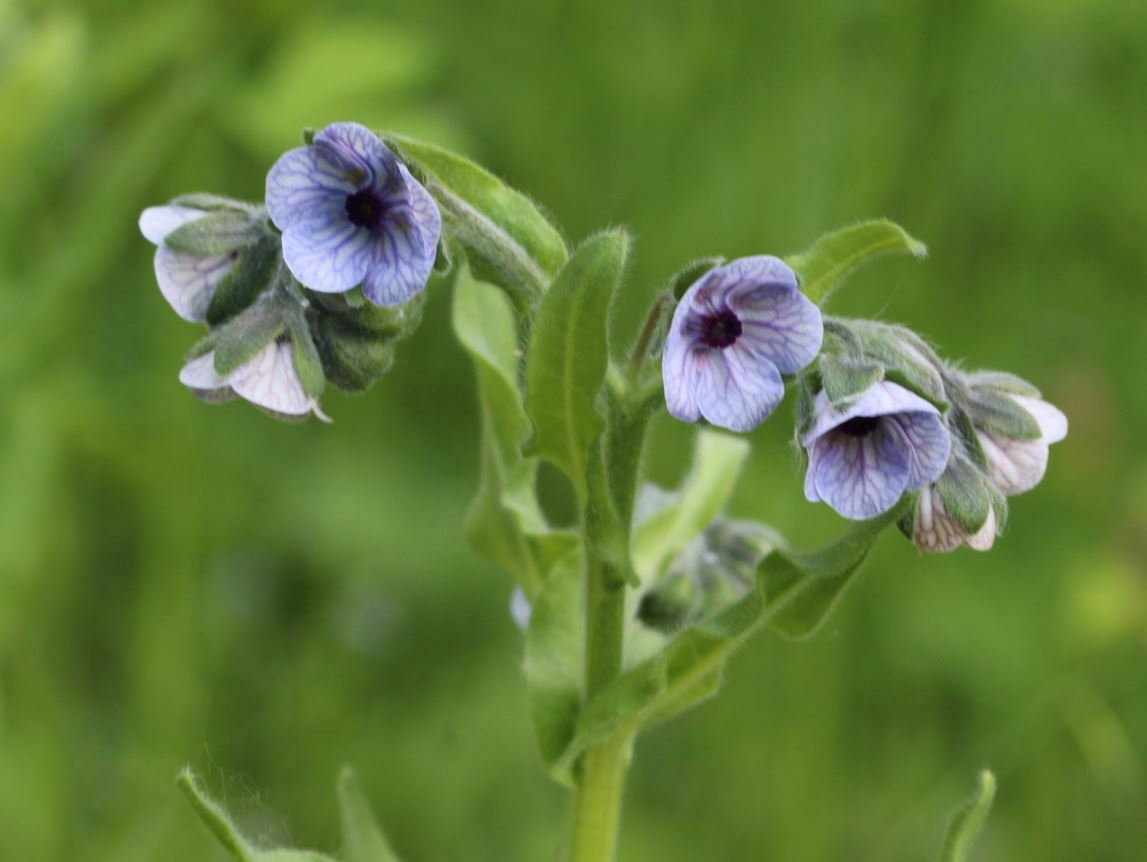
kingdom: Plantae
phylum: Tracheophyta
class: Magnoliopsida
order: Boraginales
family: Boraginaceae
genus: Cynoglossum
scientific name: Cynoglossum creticum
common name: Blue hound's tongue
